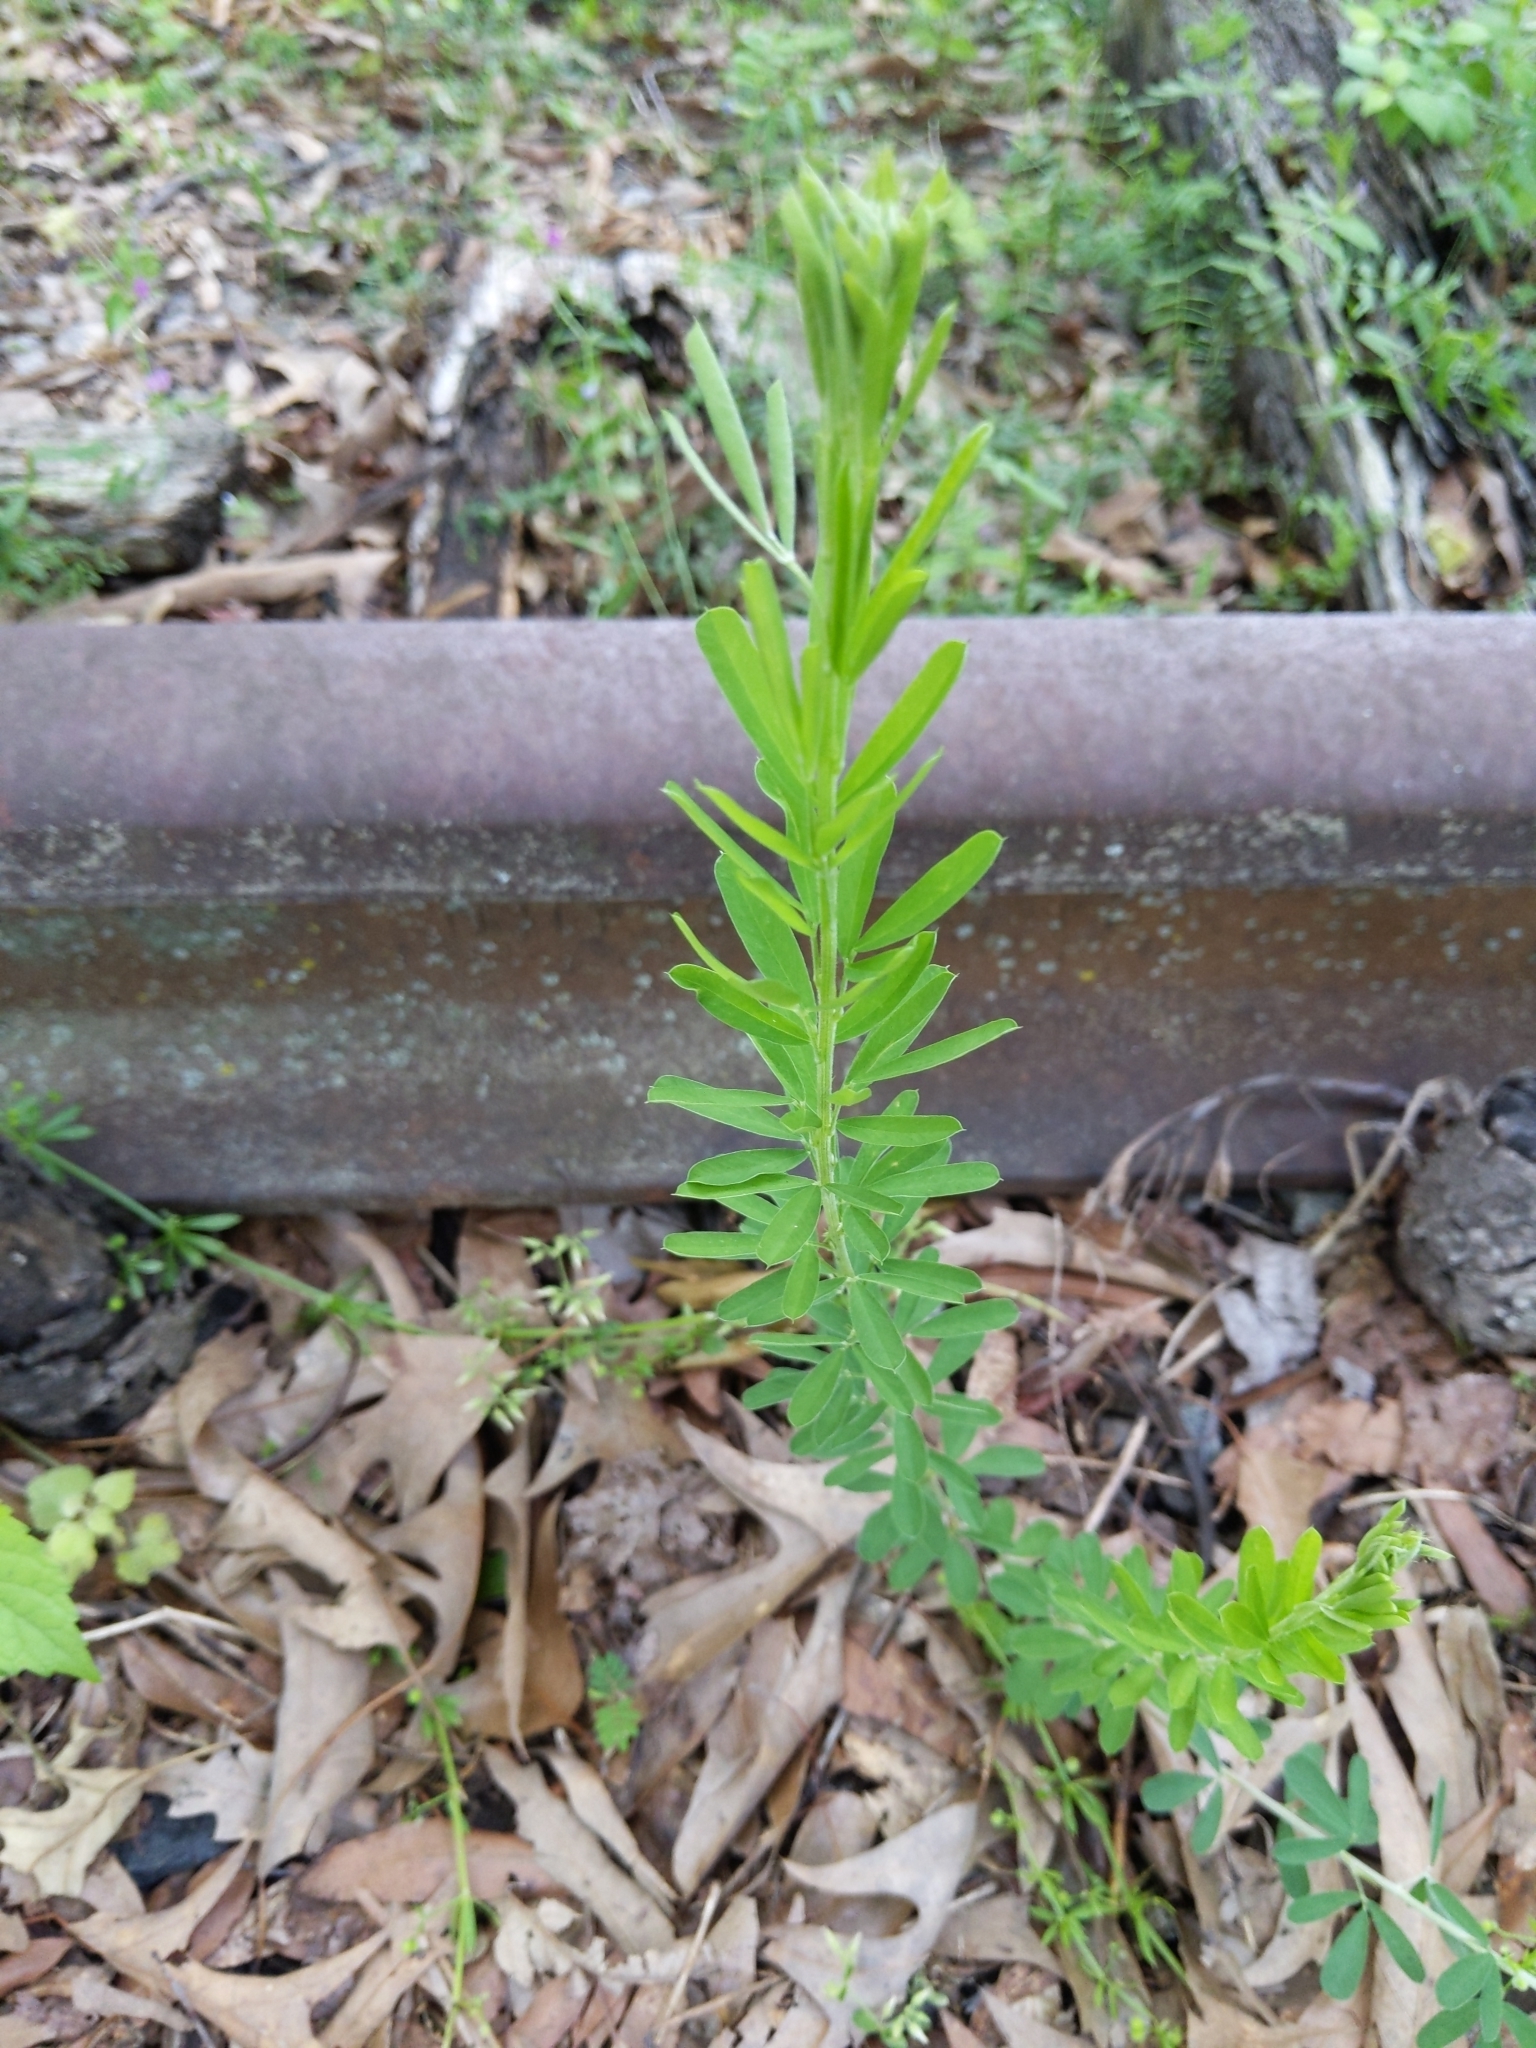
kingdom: Plantae
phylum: Tracheophyta
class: Magnoliopsida
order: Fabales
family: Fabaceae
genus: Lespedeza
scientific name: Lespedeza cuneata
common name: Chinese bush-clover
